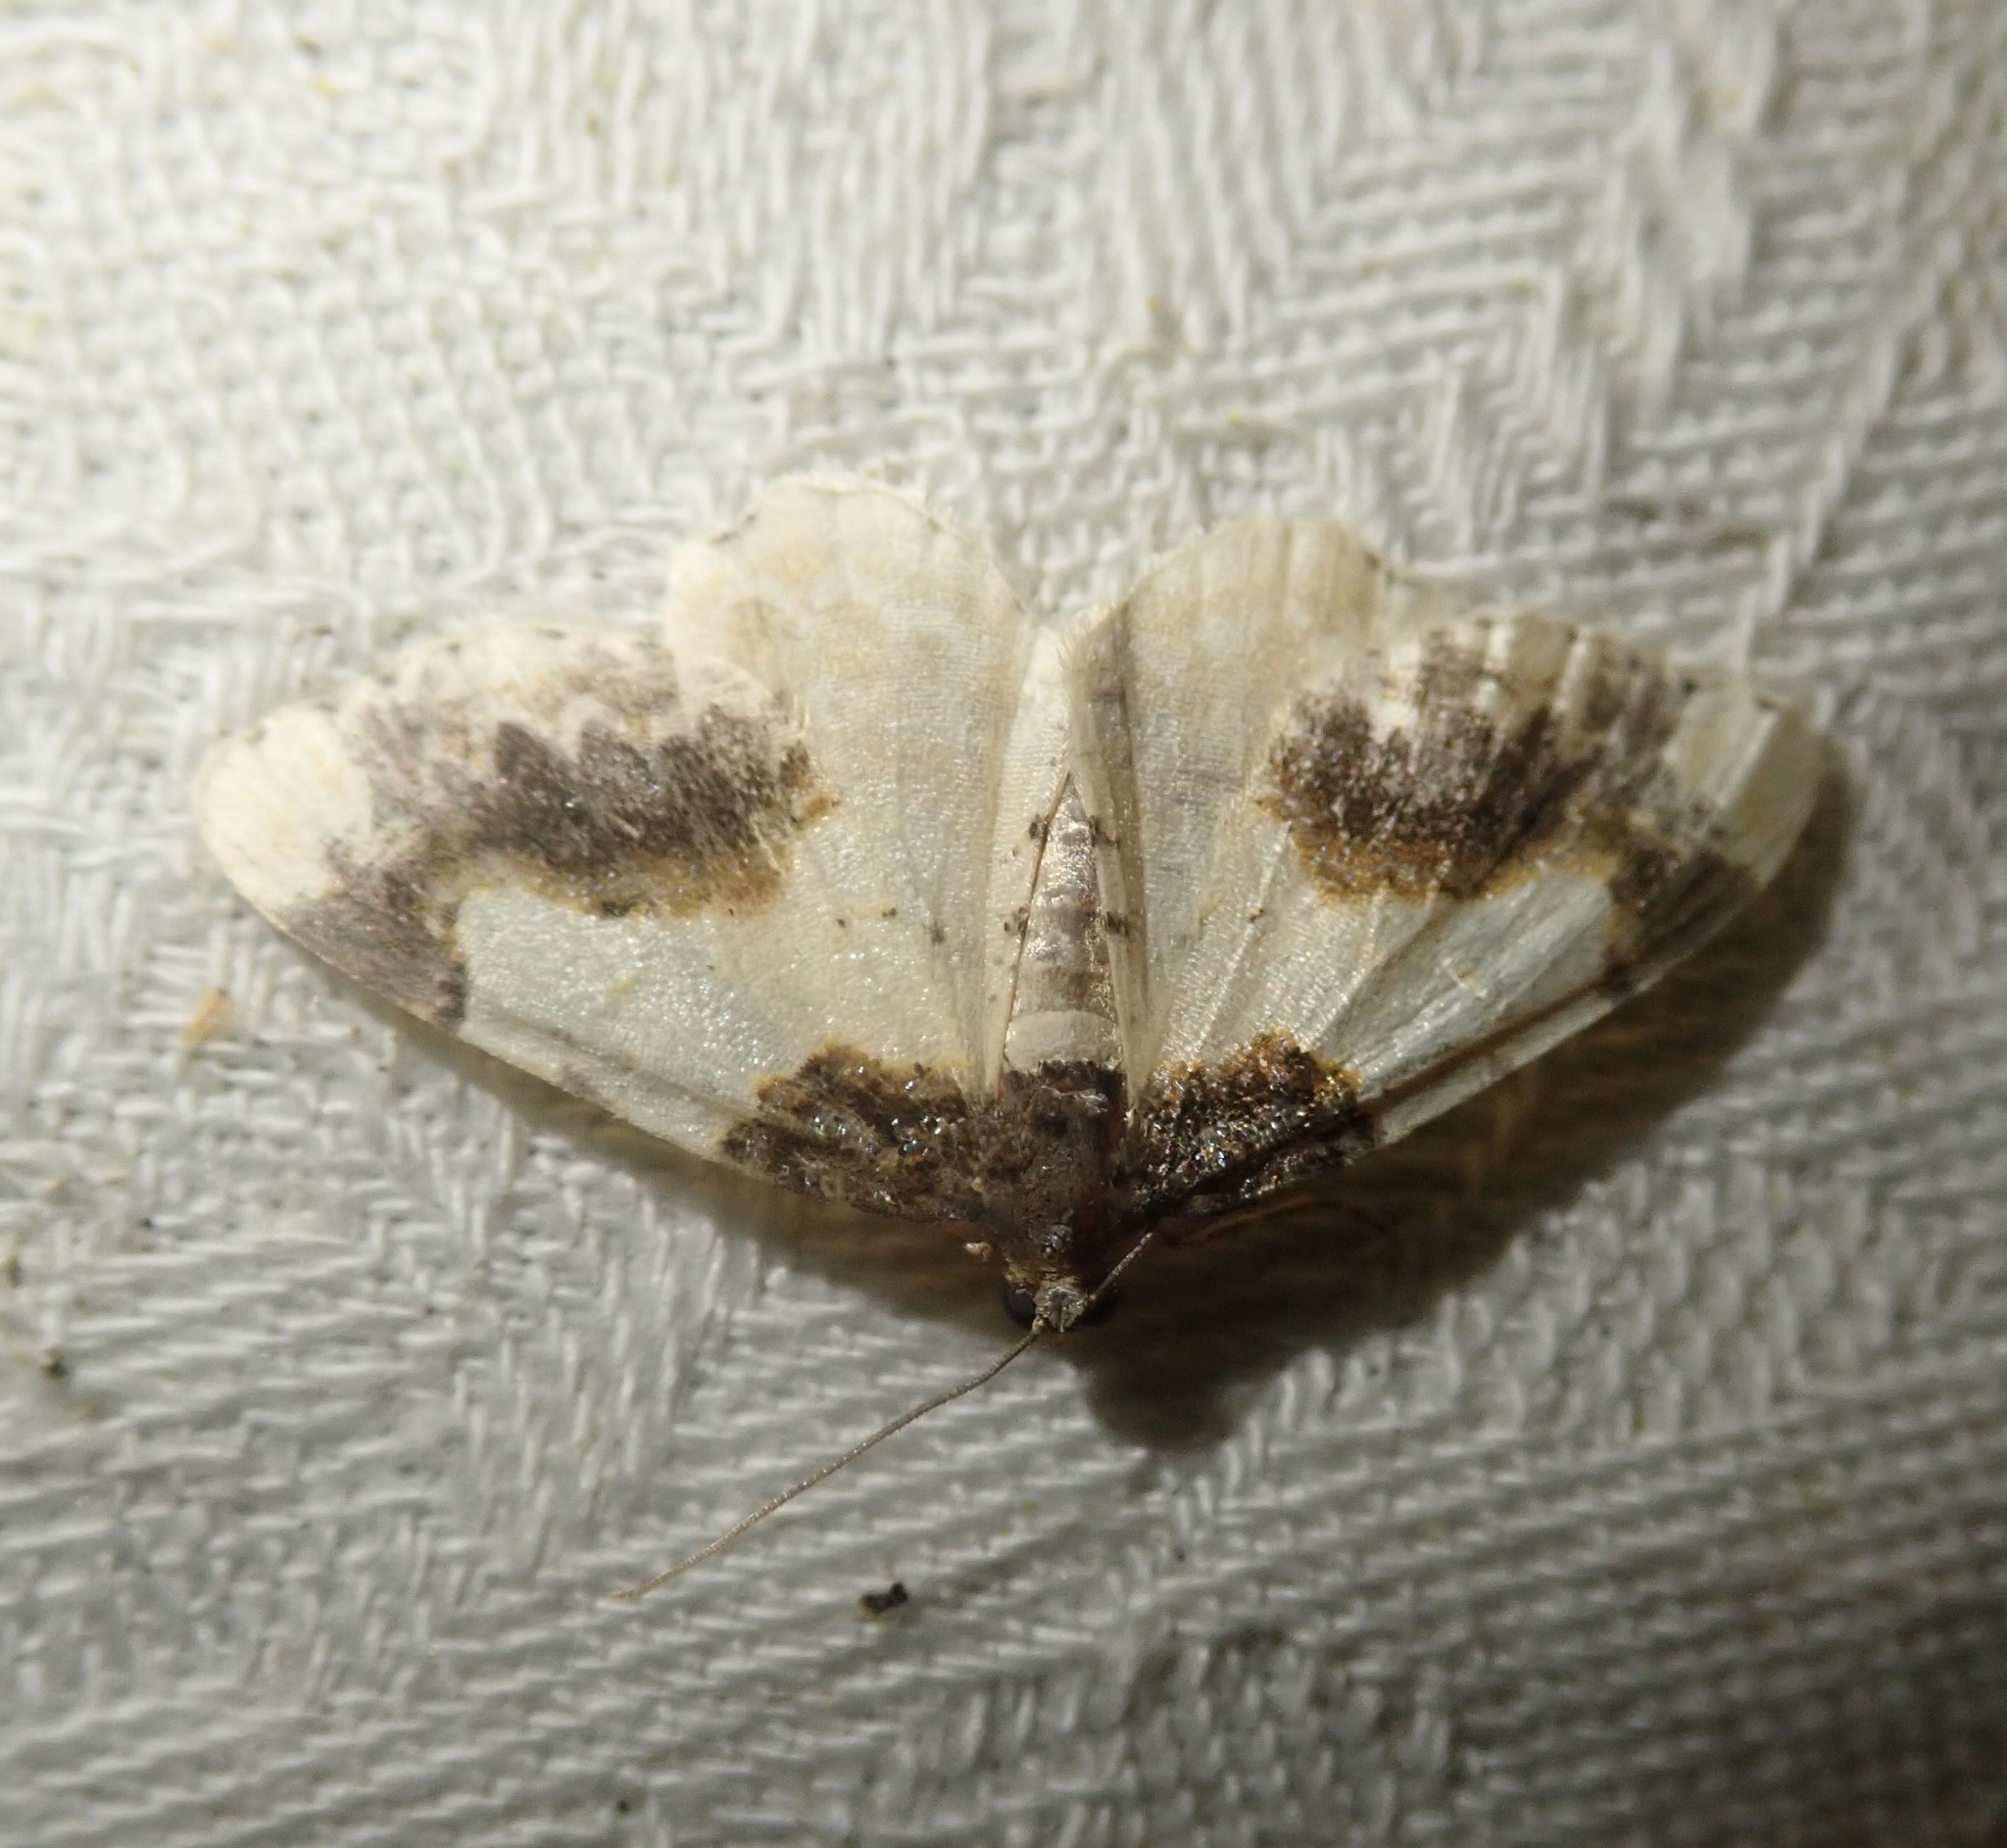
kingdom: Animalia
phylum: Arthropoda
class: Insecta
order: Lepidoptera
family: Geometridae
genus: Ligdia
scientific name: Ligdia adustata
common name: Scorched carpet
